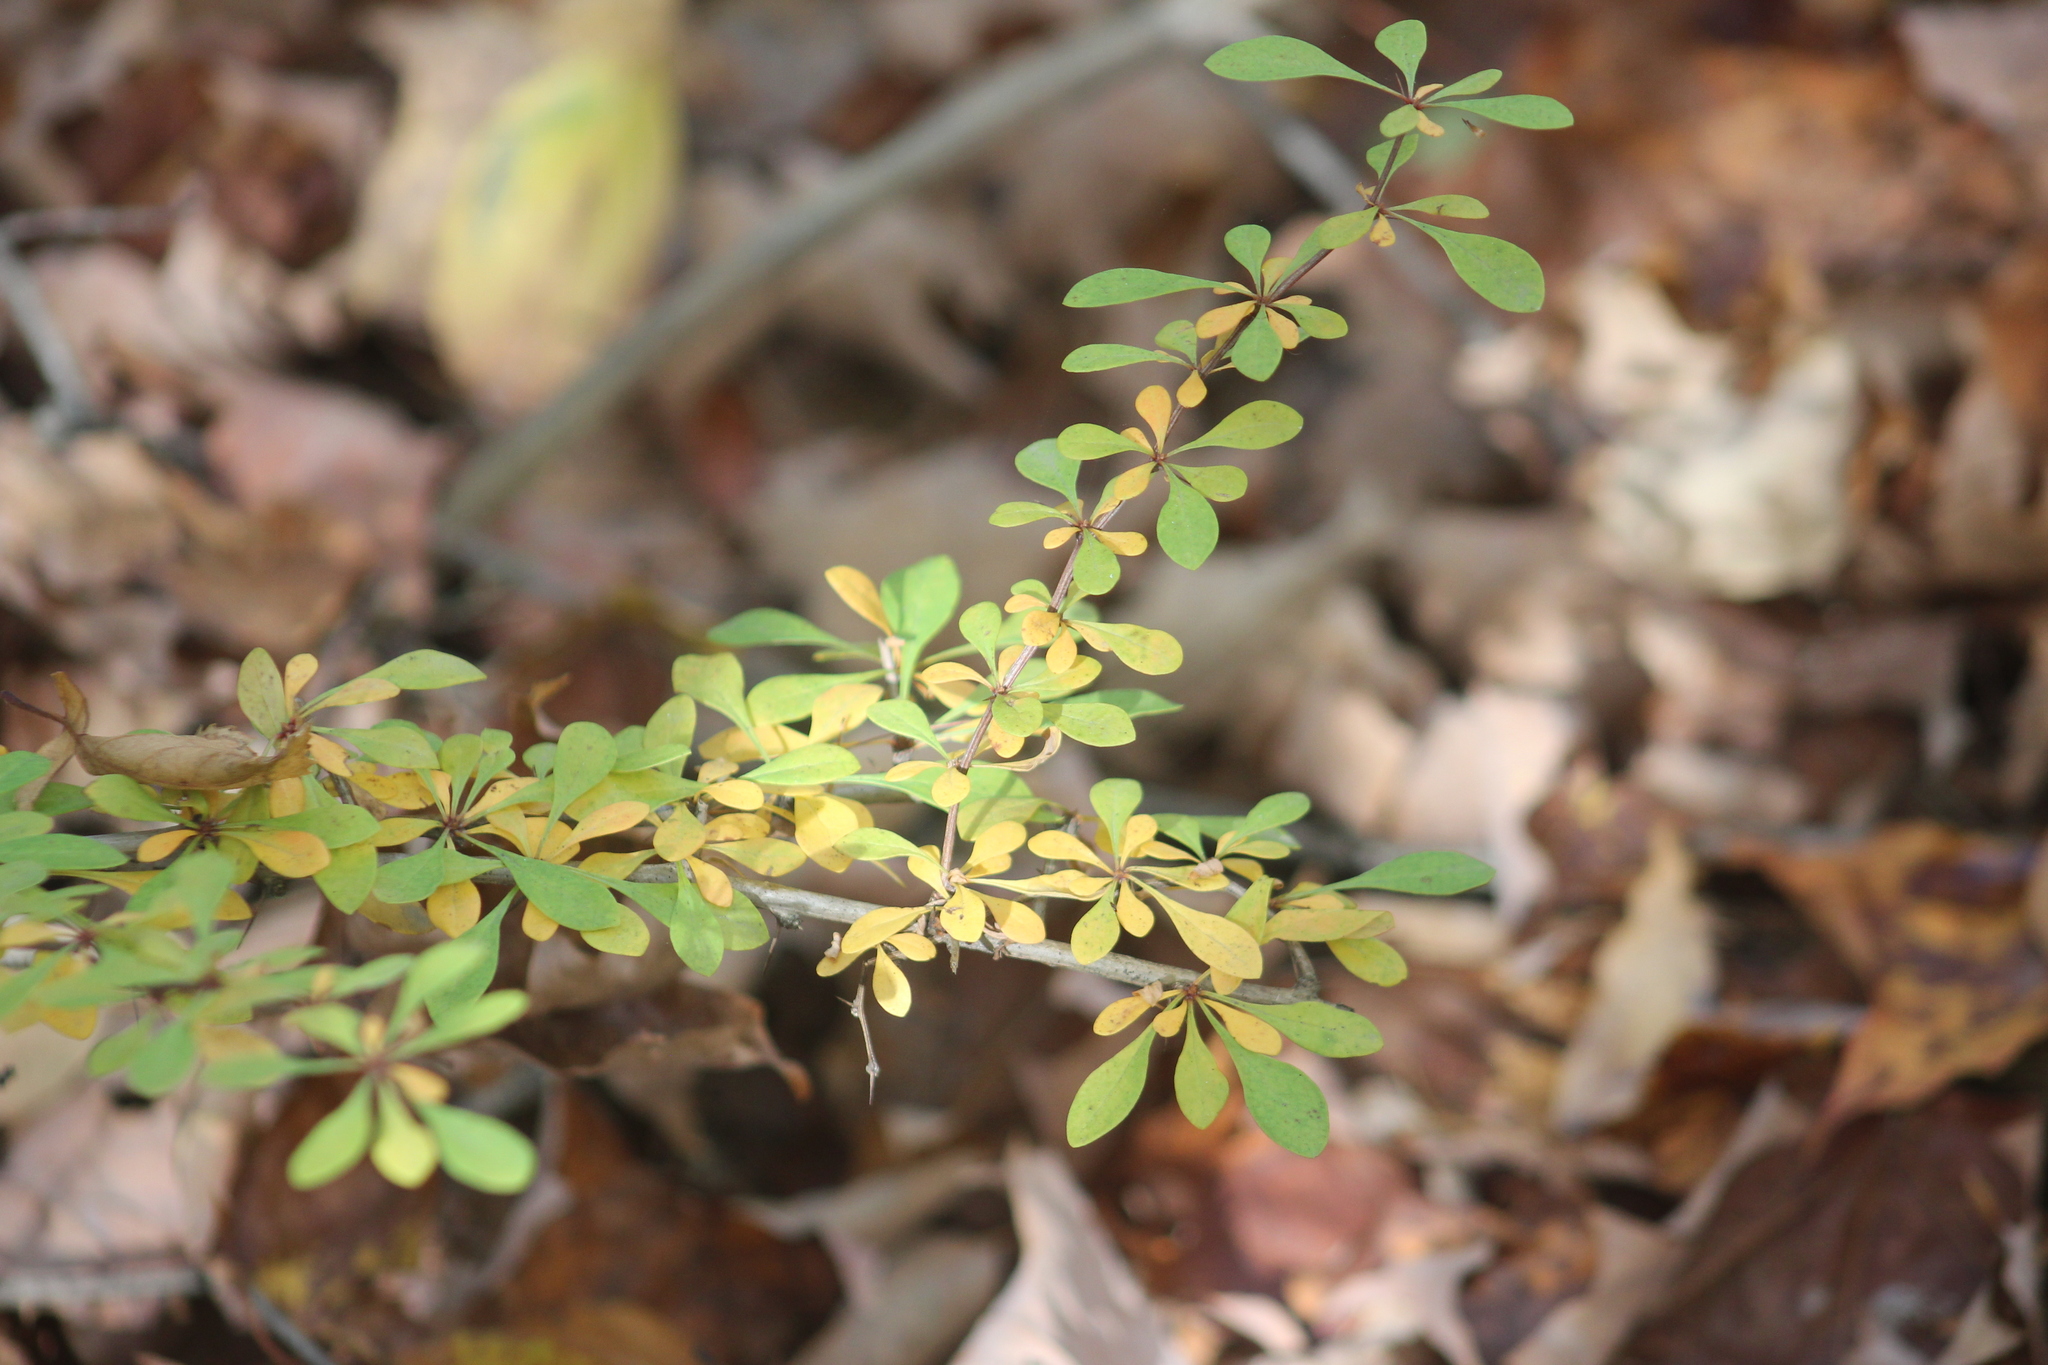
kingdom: Plantae
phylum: Tracheophyta
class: Magnoliopsida
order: Ranunculales
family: Berberidaceae
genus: Berberis
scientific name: Berberis thunbergii
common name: Japanese barberry
